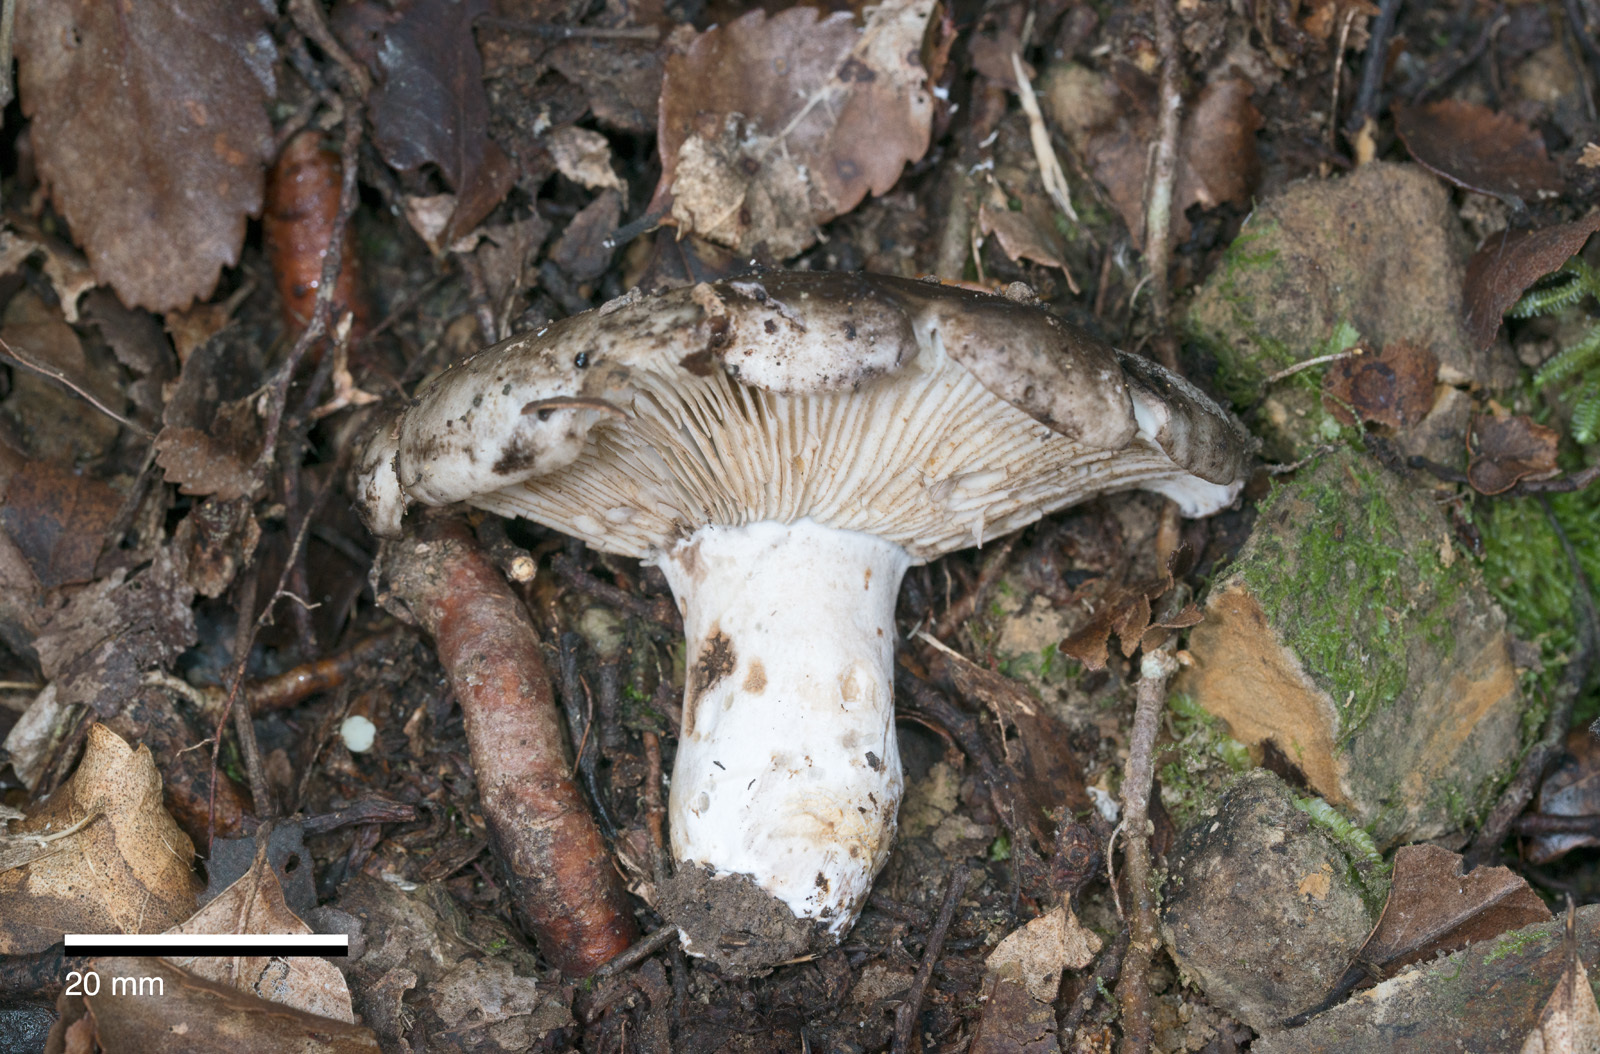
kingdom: Fungi
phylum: Basidiomycota
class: Agaricomycetes
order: Russulales
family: Russulaceae
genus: Russula
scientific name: Russula inquinata
